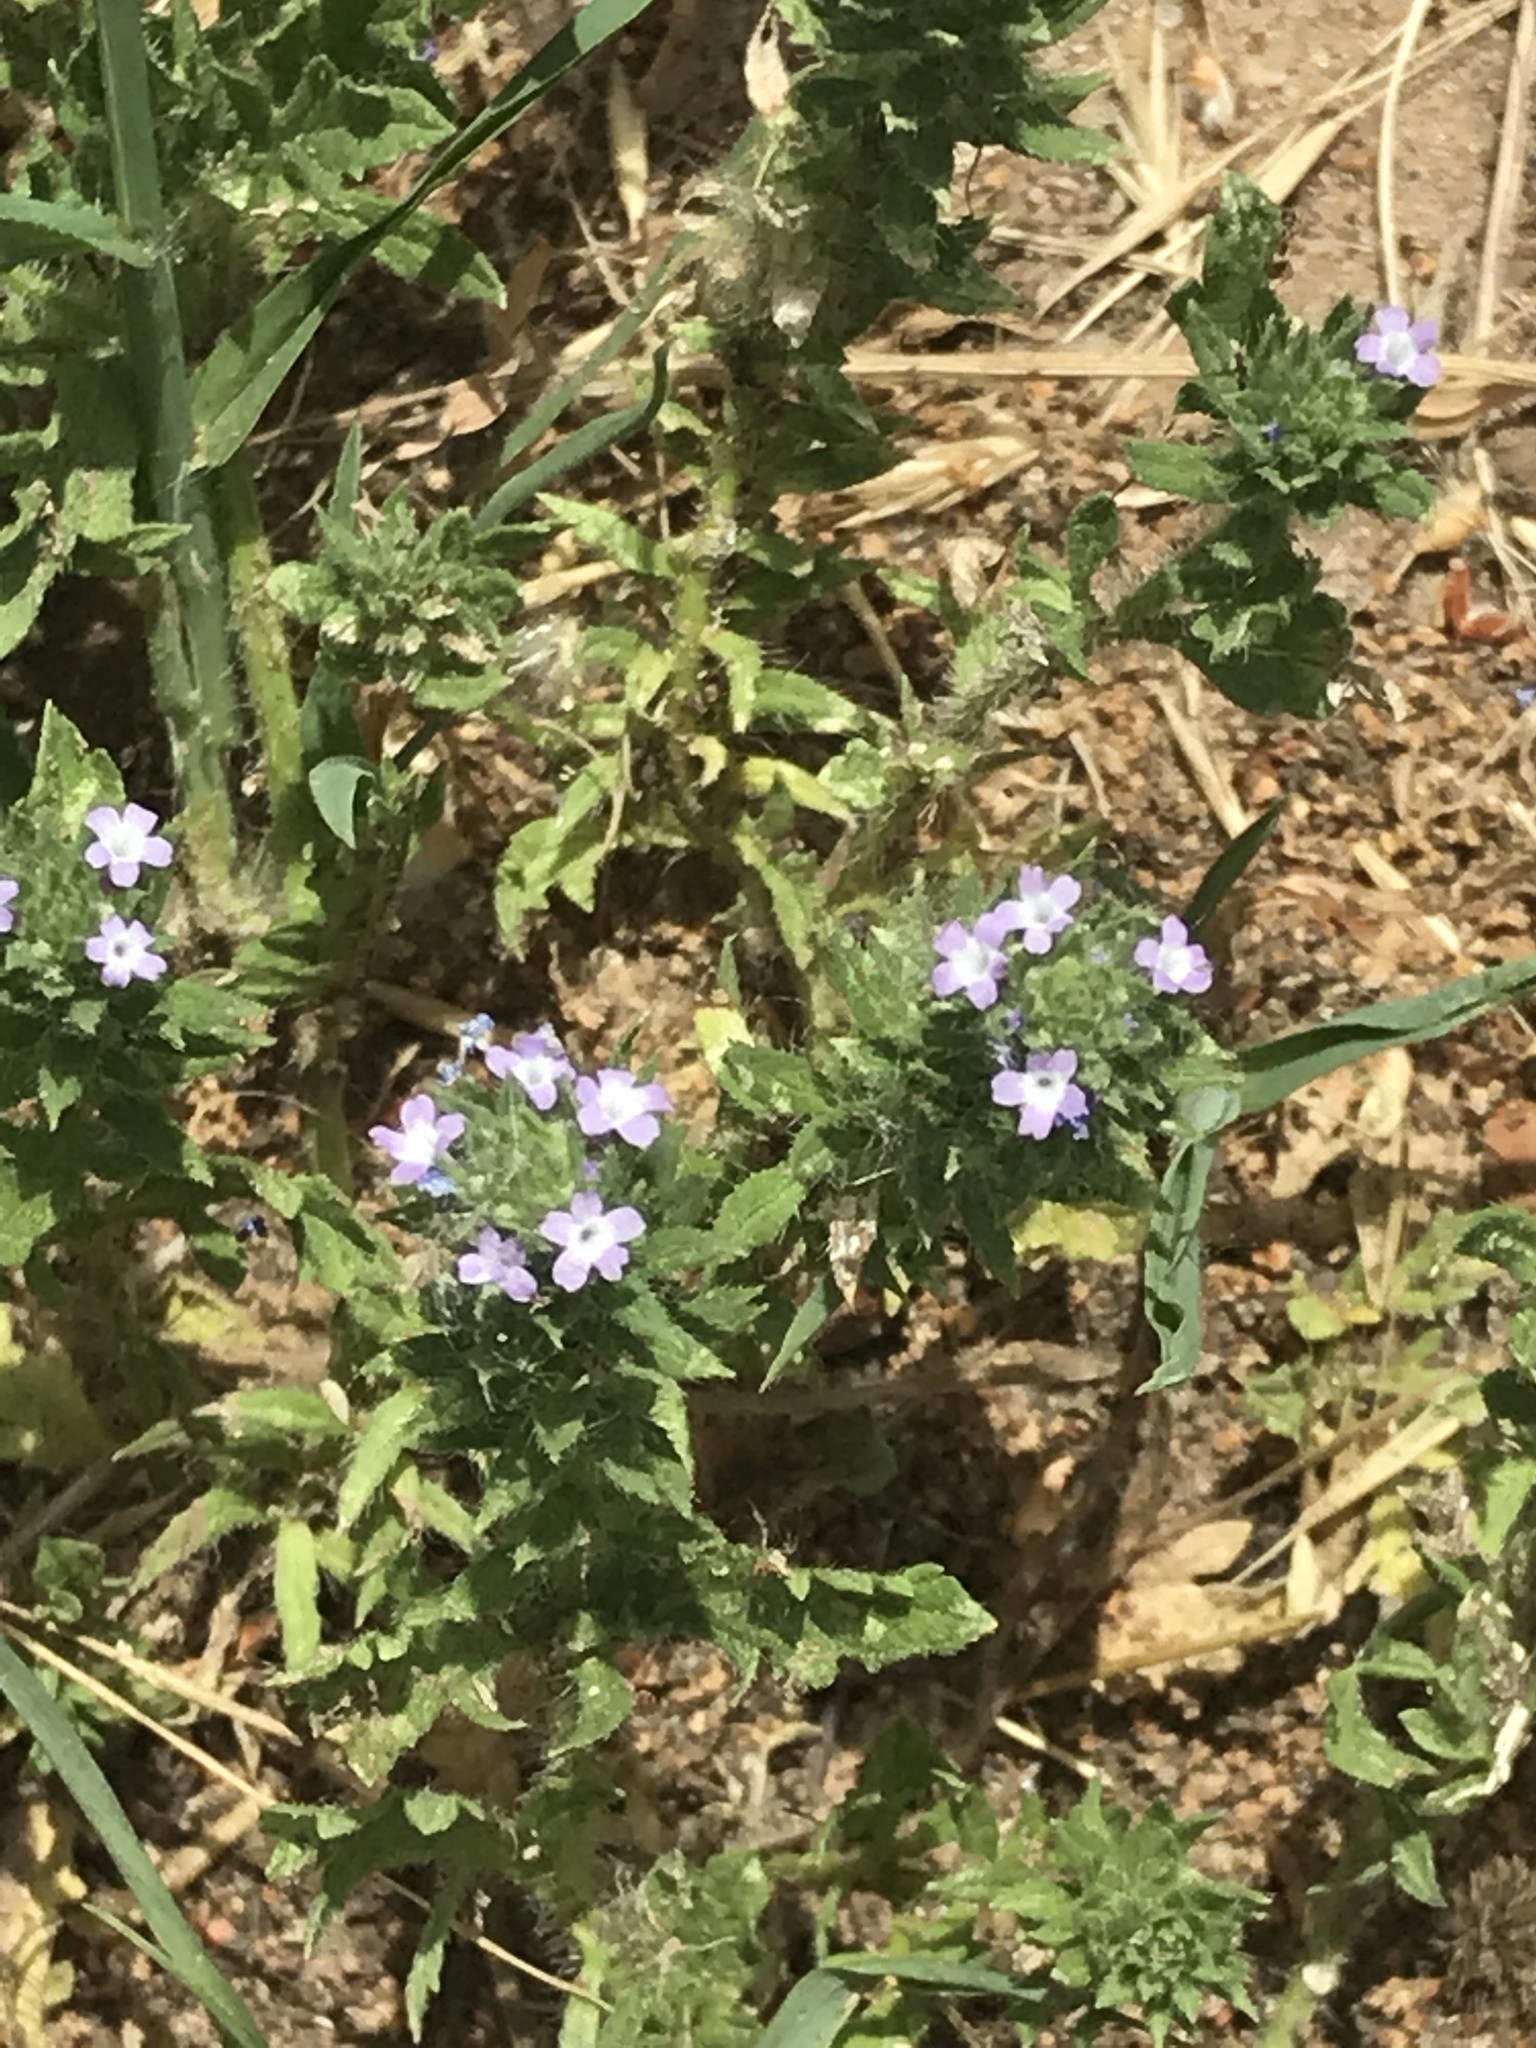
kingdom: Plantae
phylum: Tracheophyta
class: Magnoliopsida
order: Lamiales
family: Verbenaceae
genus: Verbena
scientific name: Verbena pumila
